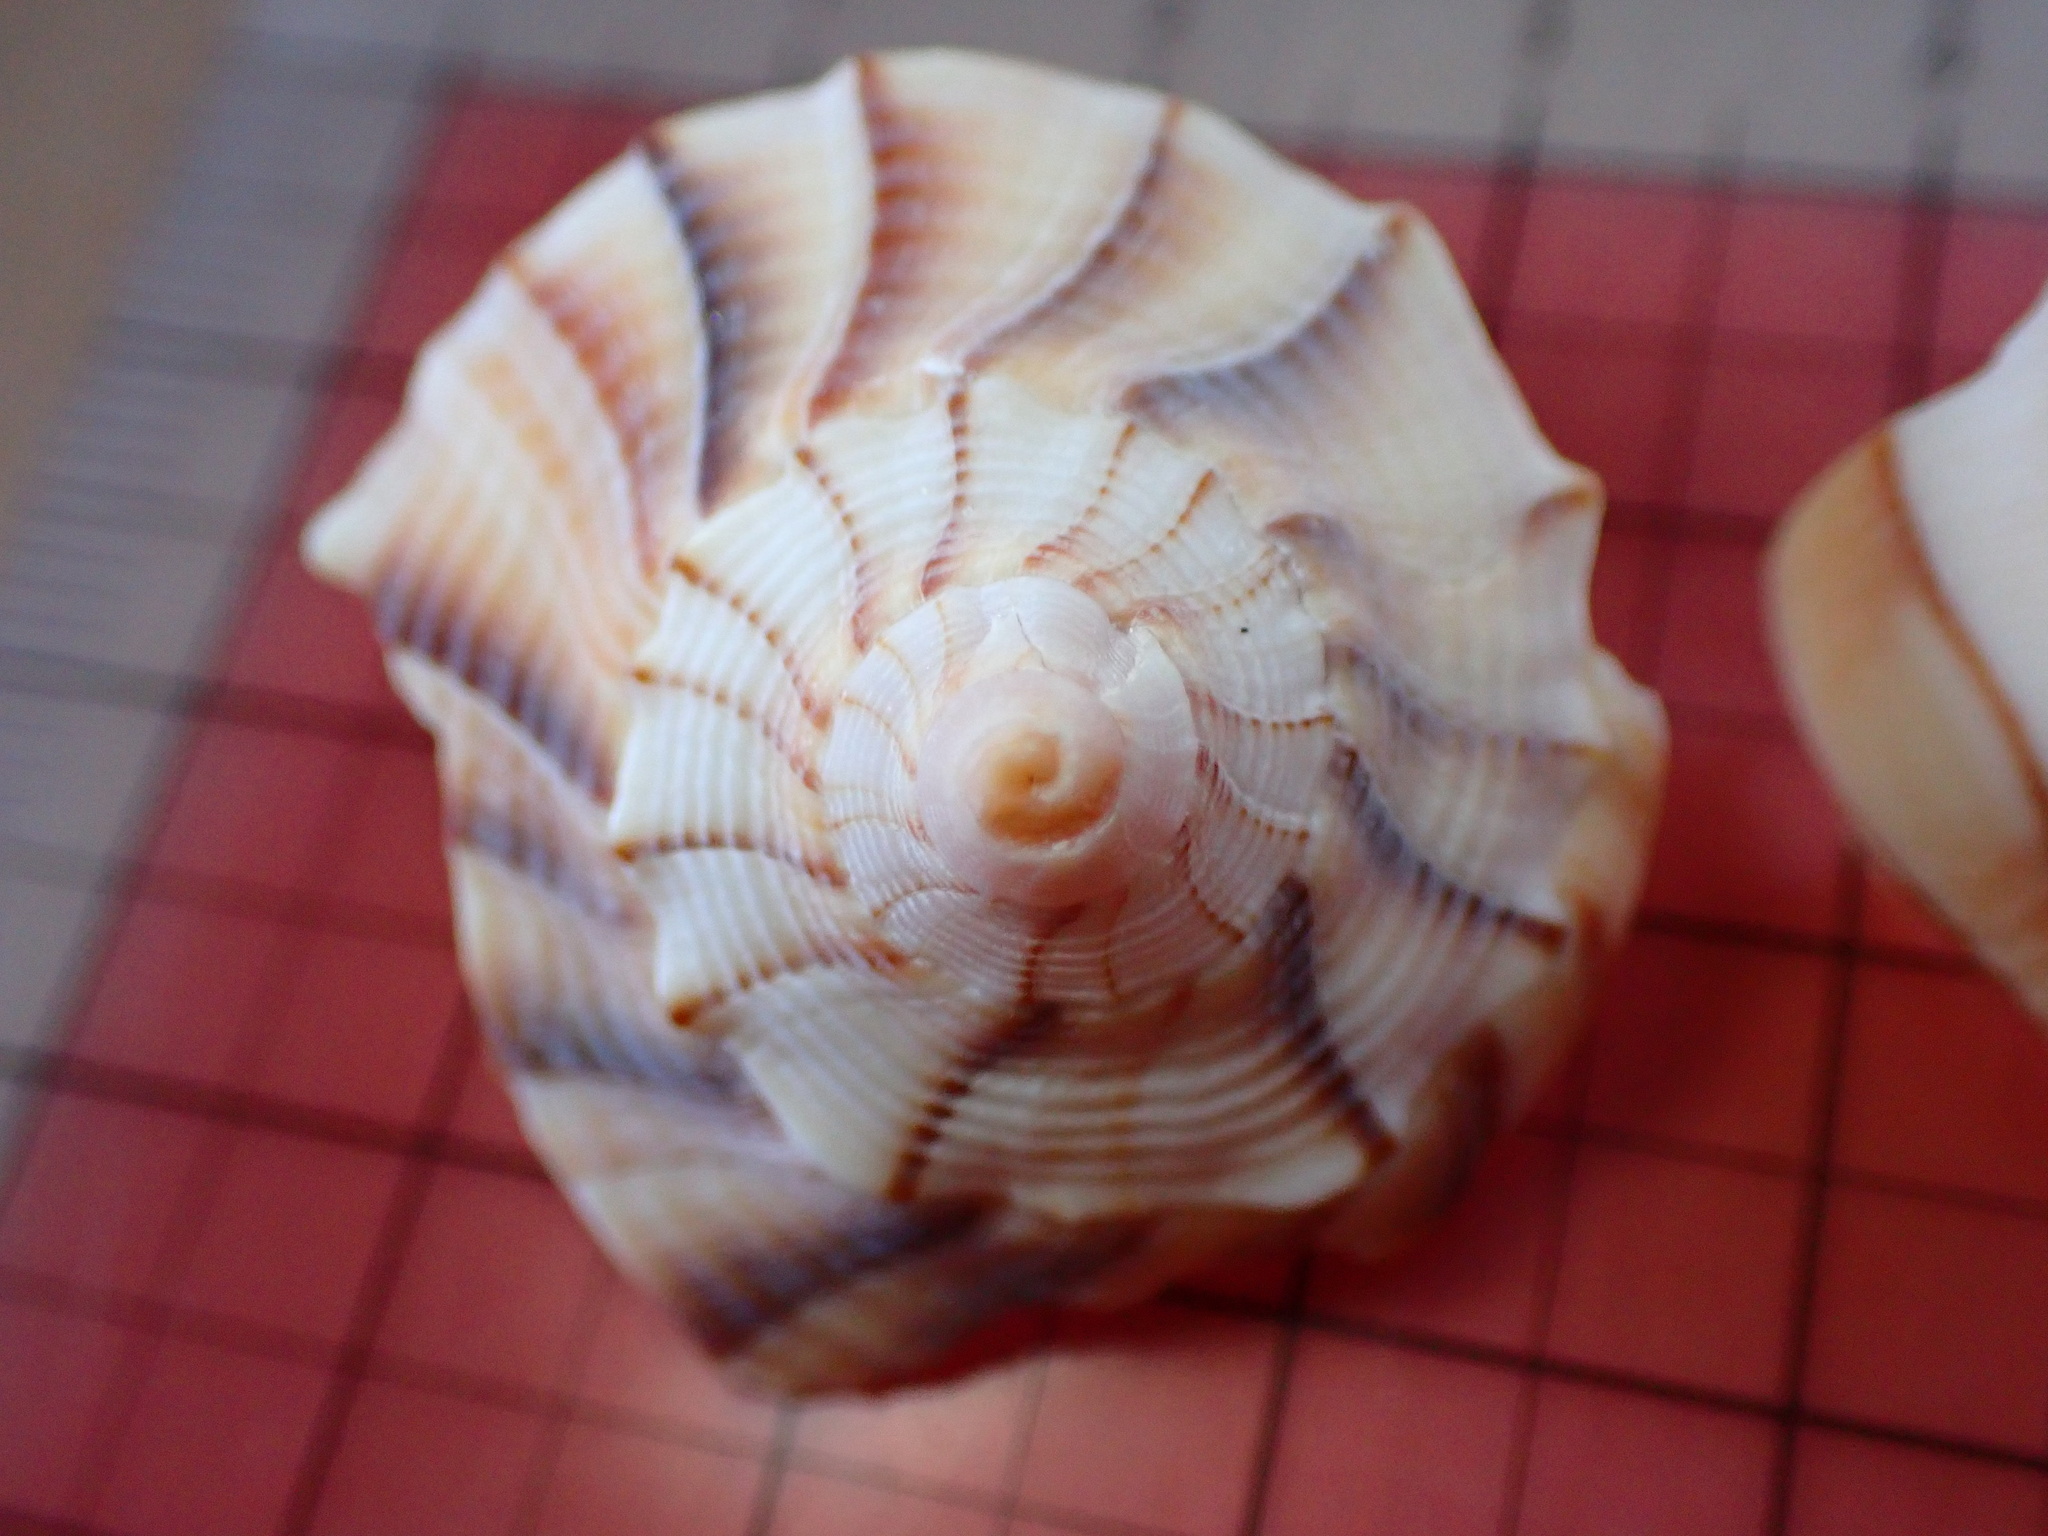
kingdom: Animalia
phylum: Mollusca
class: Gastropoda
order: Neogastropoda
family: Busyconidae
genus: Sinistrofulgur
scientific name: Sinistrofulgur sinistrum
